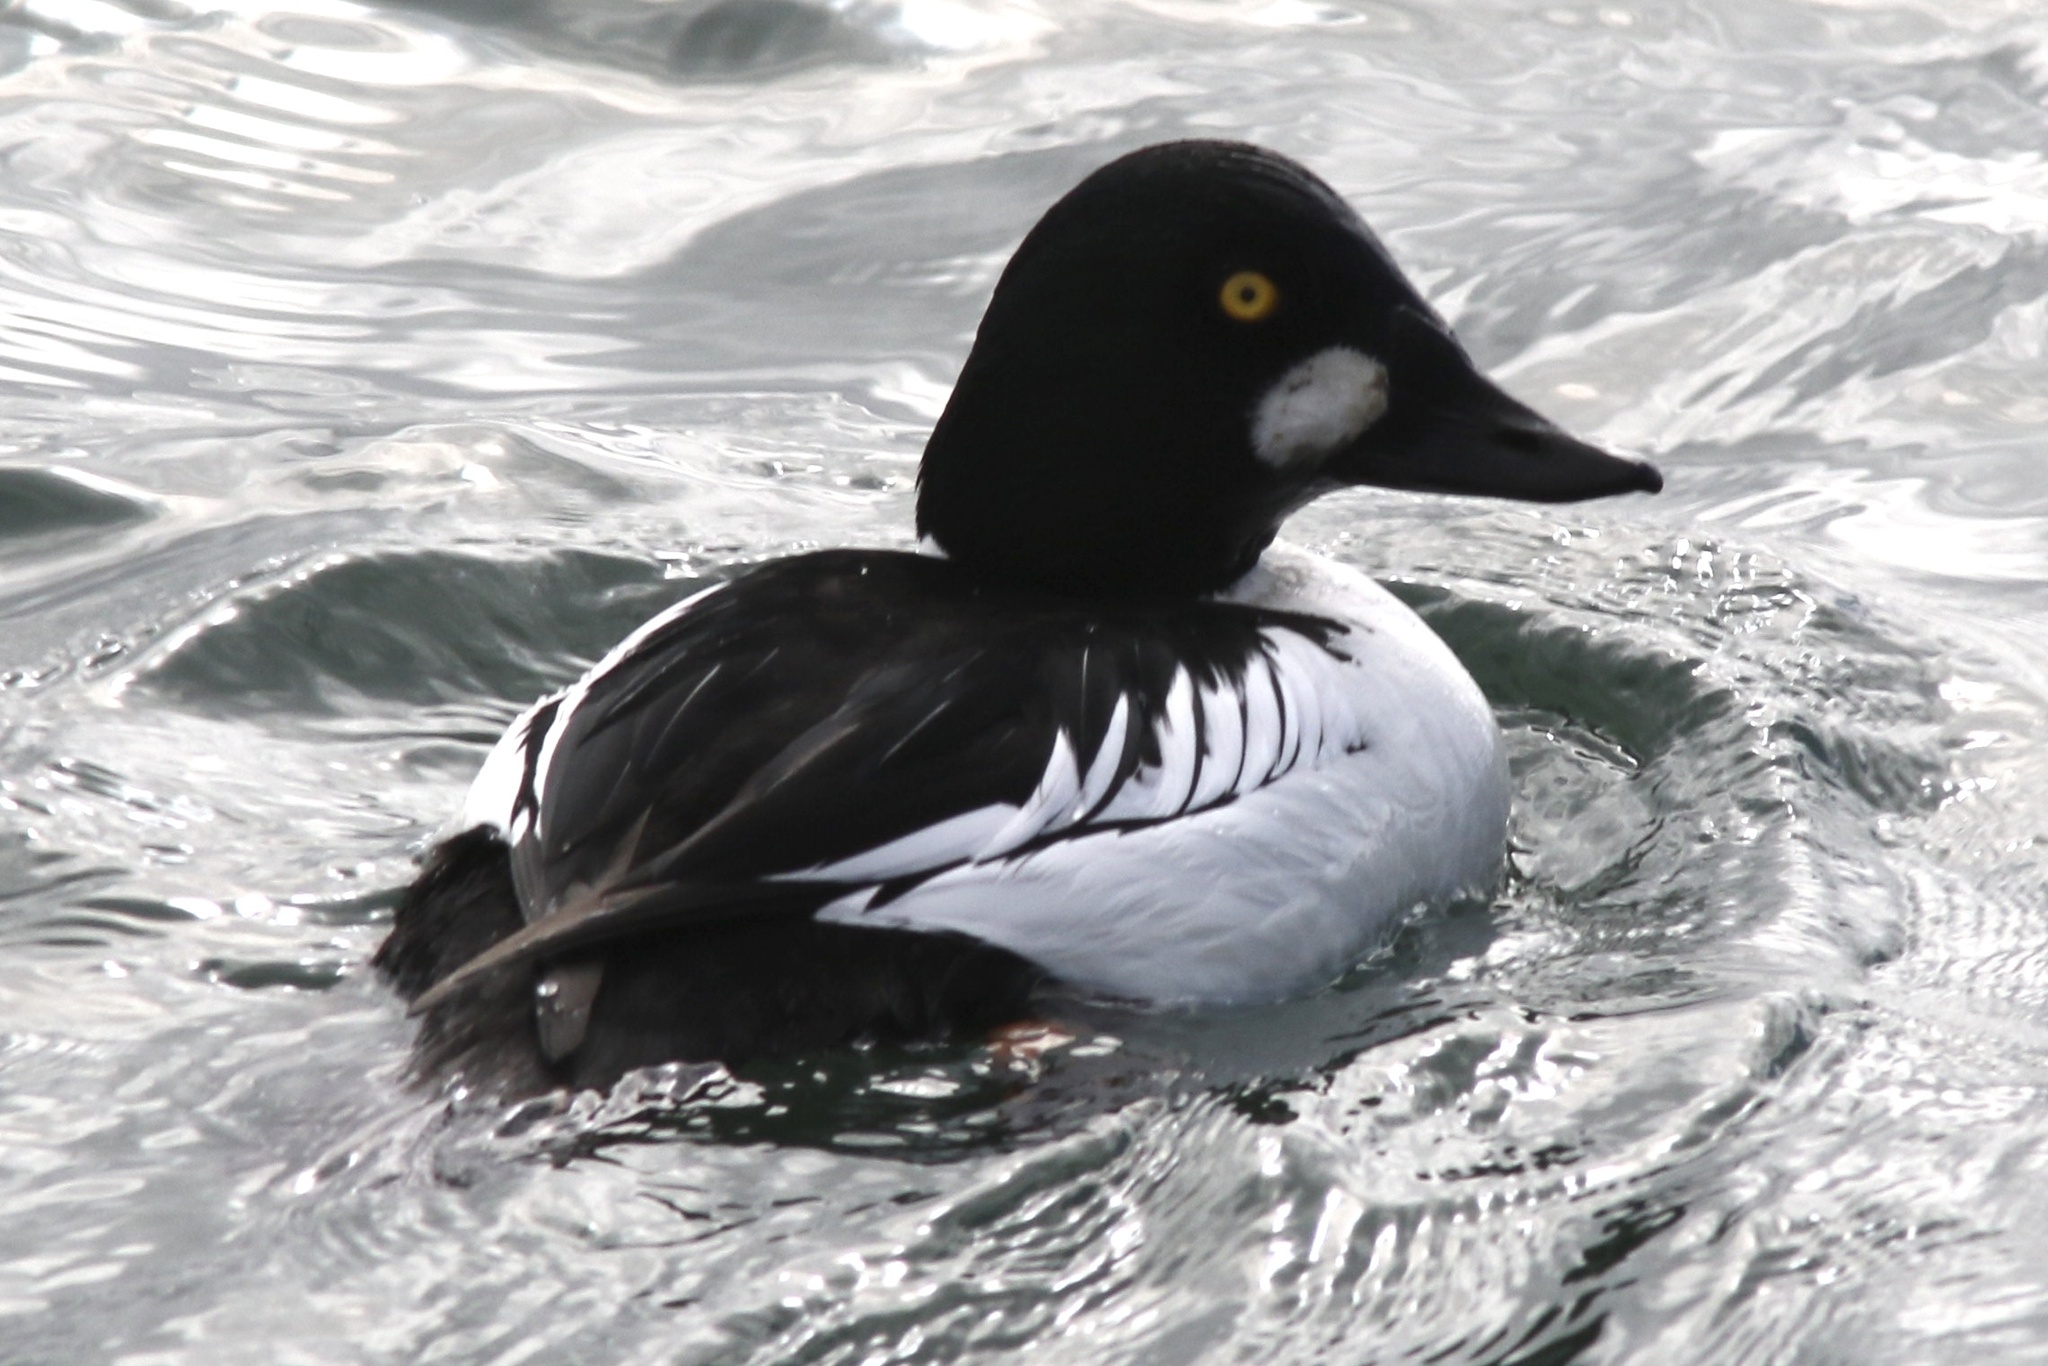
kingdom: Animalia
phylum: Chordata
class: Aves
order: Anseriformes
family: Anatidae
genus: Bucephala
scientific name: Bucephala clangula
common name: Common goldeneye
